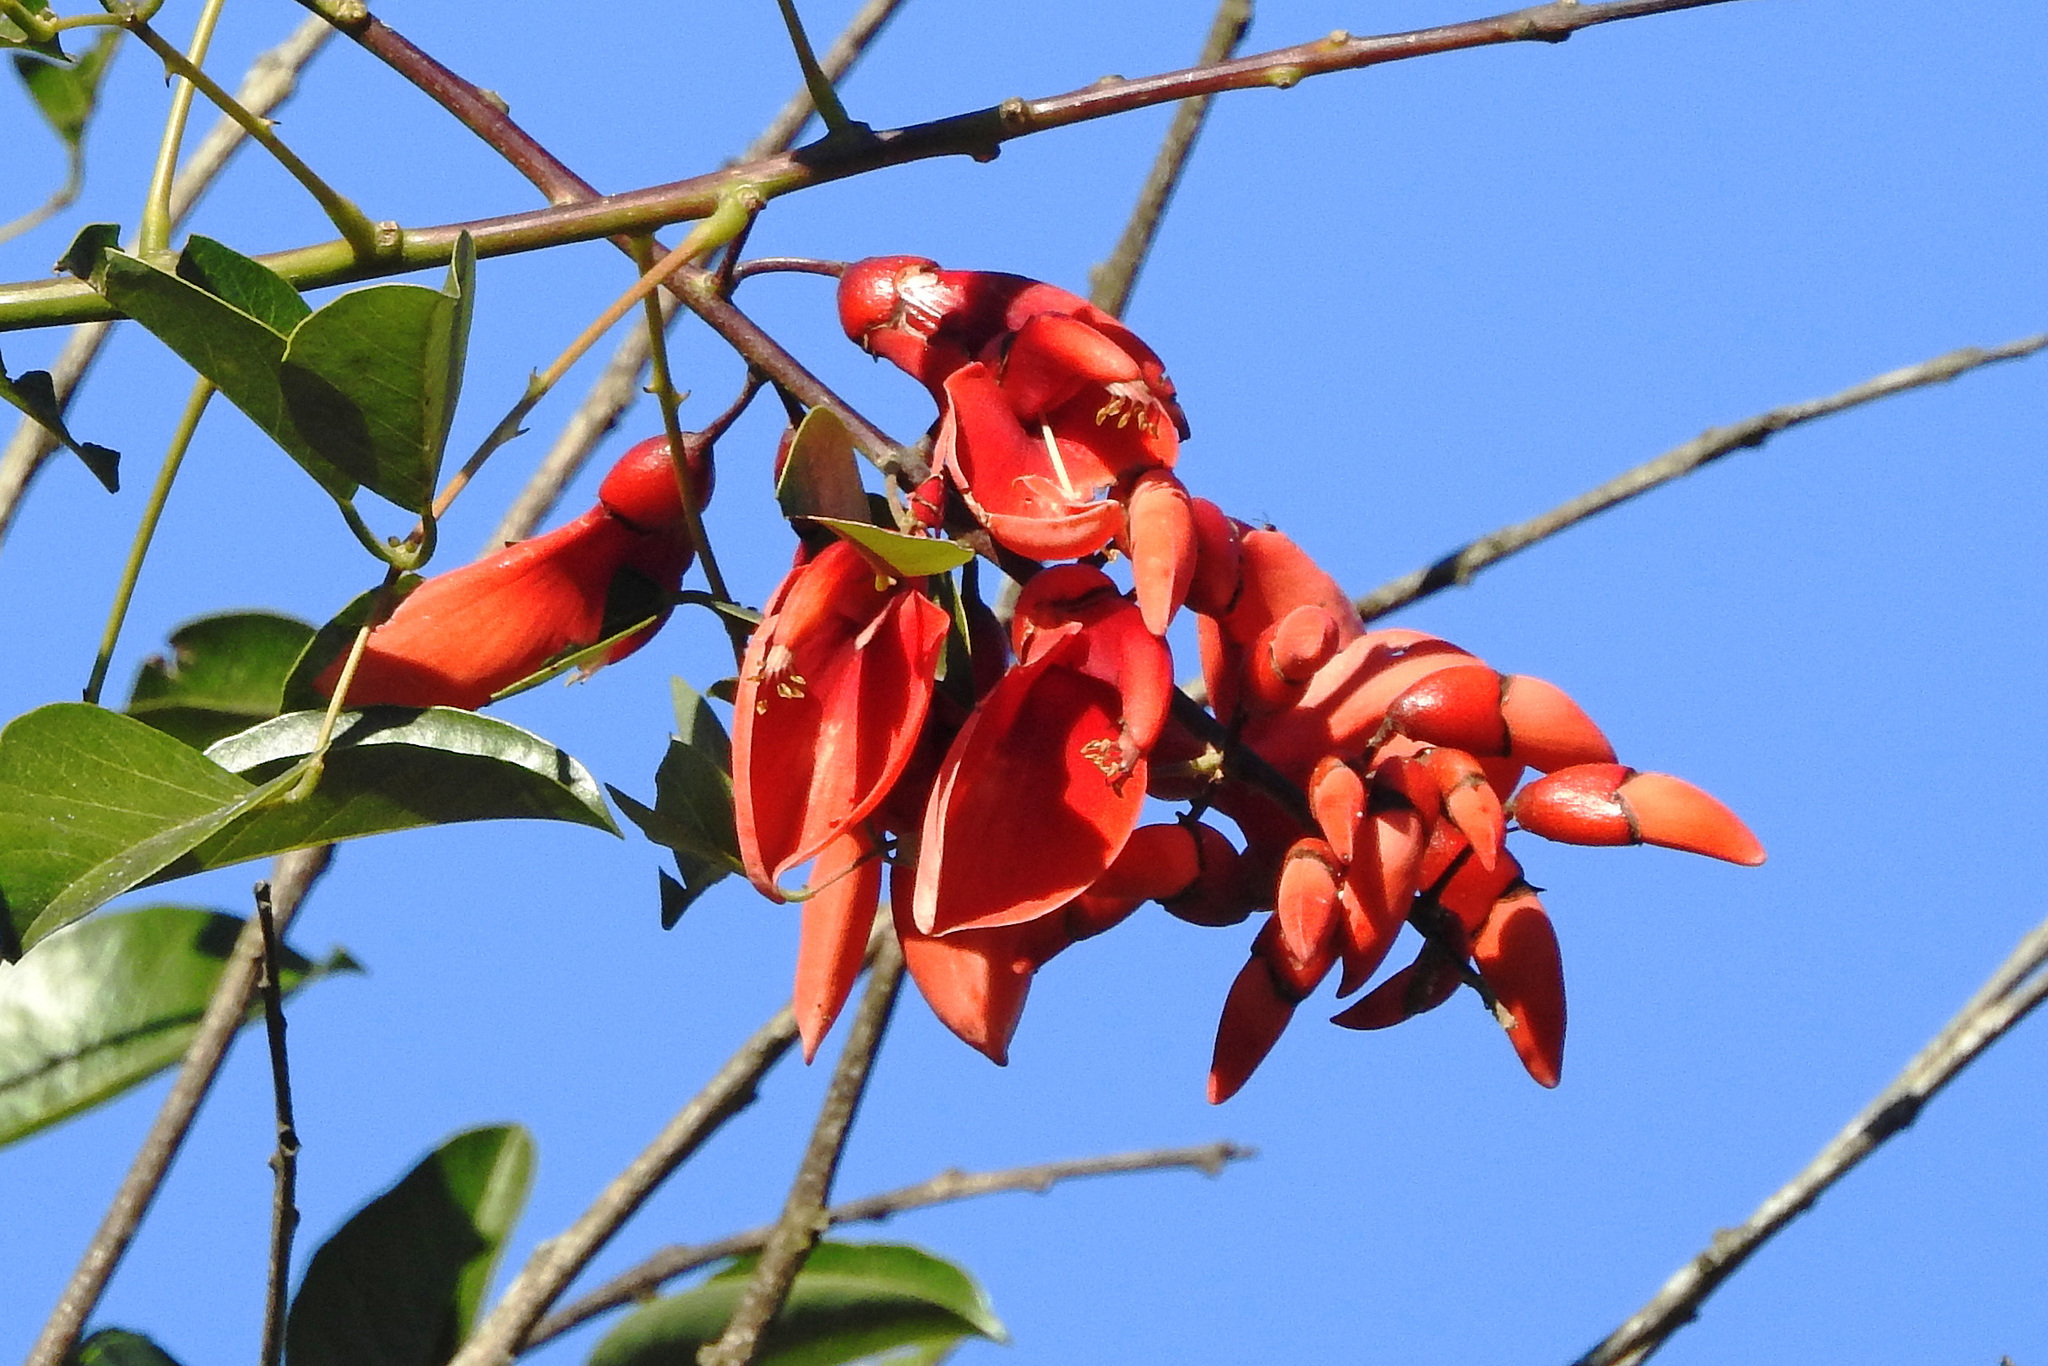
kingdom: Plantae
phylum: Tracheophyta
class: Magnoliopsida
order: Fabales
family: Fabaceae
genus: Erythrina
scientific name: Erythrina crista-galli
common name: Cockspur coral tree
